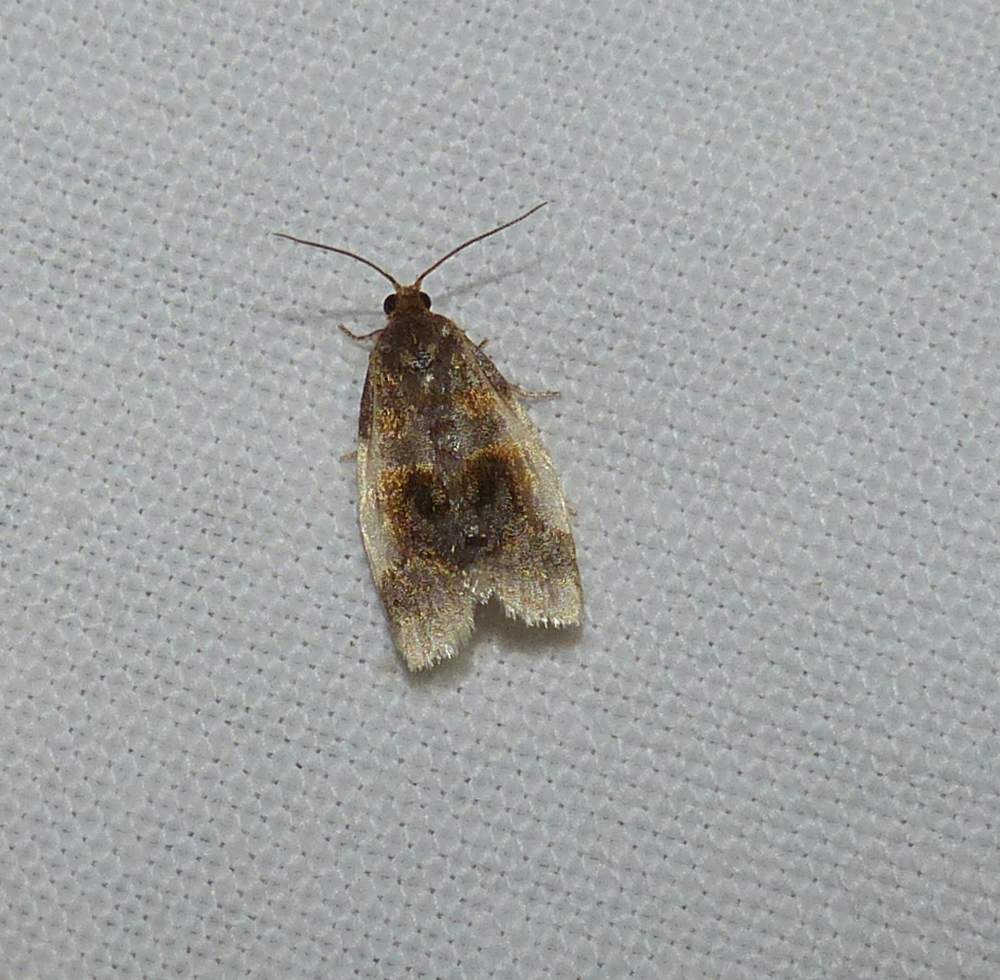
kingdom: Animalia
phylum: Arthropoda
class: Insecta
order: Lepidoptera
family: Tortricidae
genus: Clepsis
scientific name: Clepsis melaleucanus
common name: American apple tortrix
